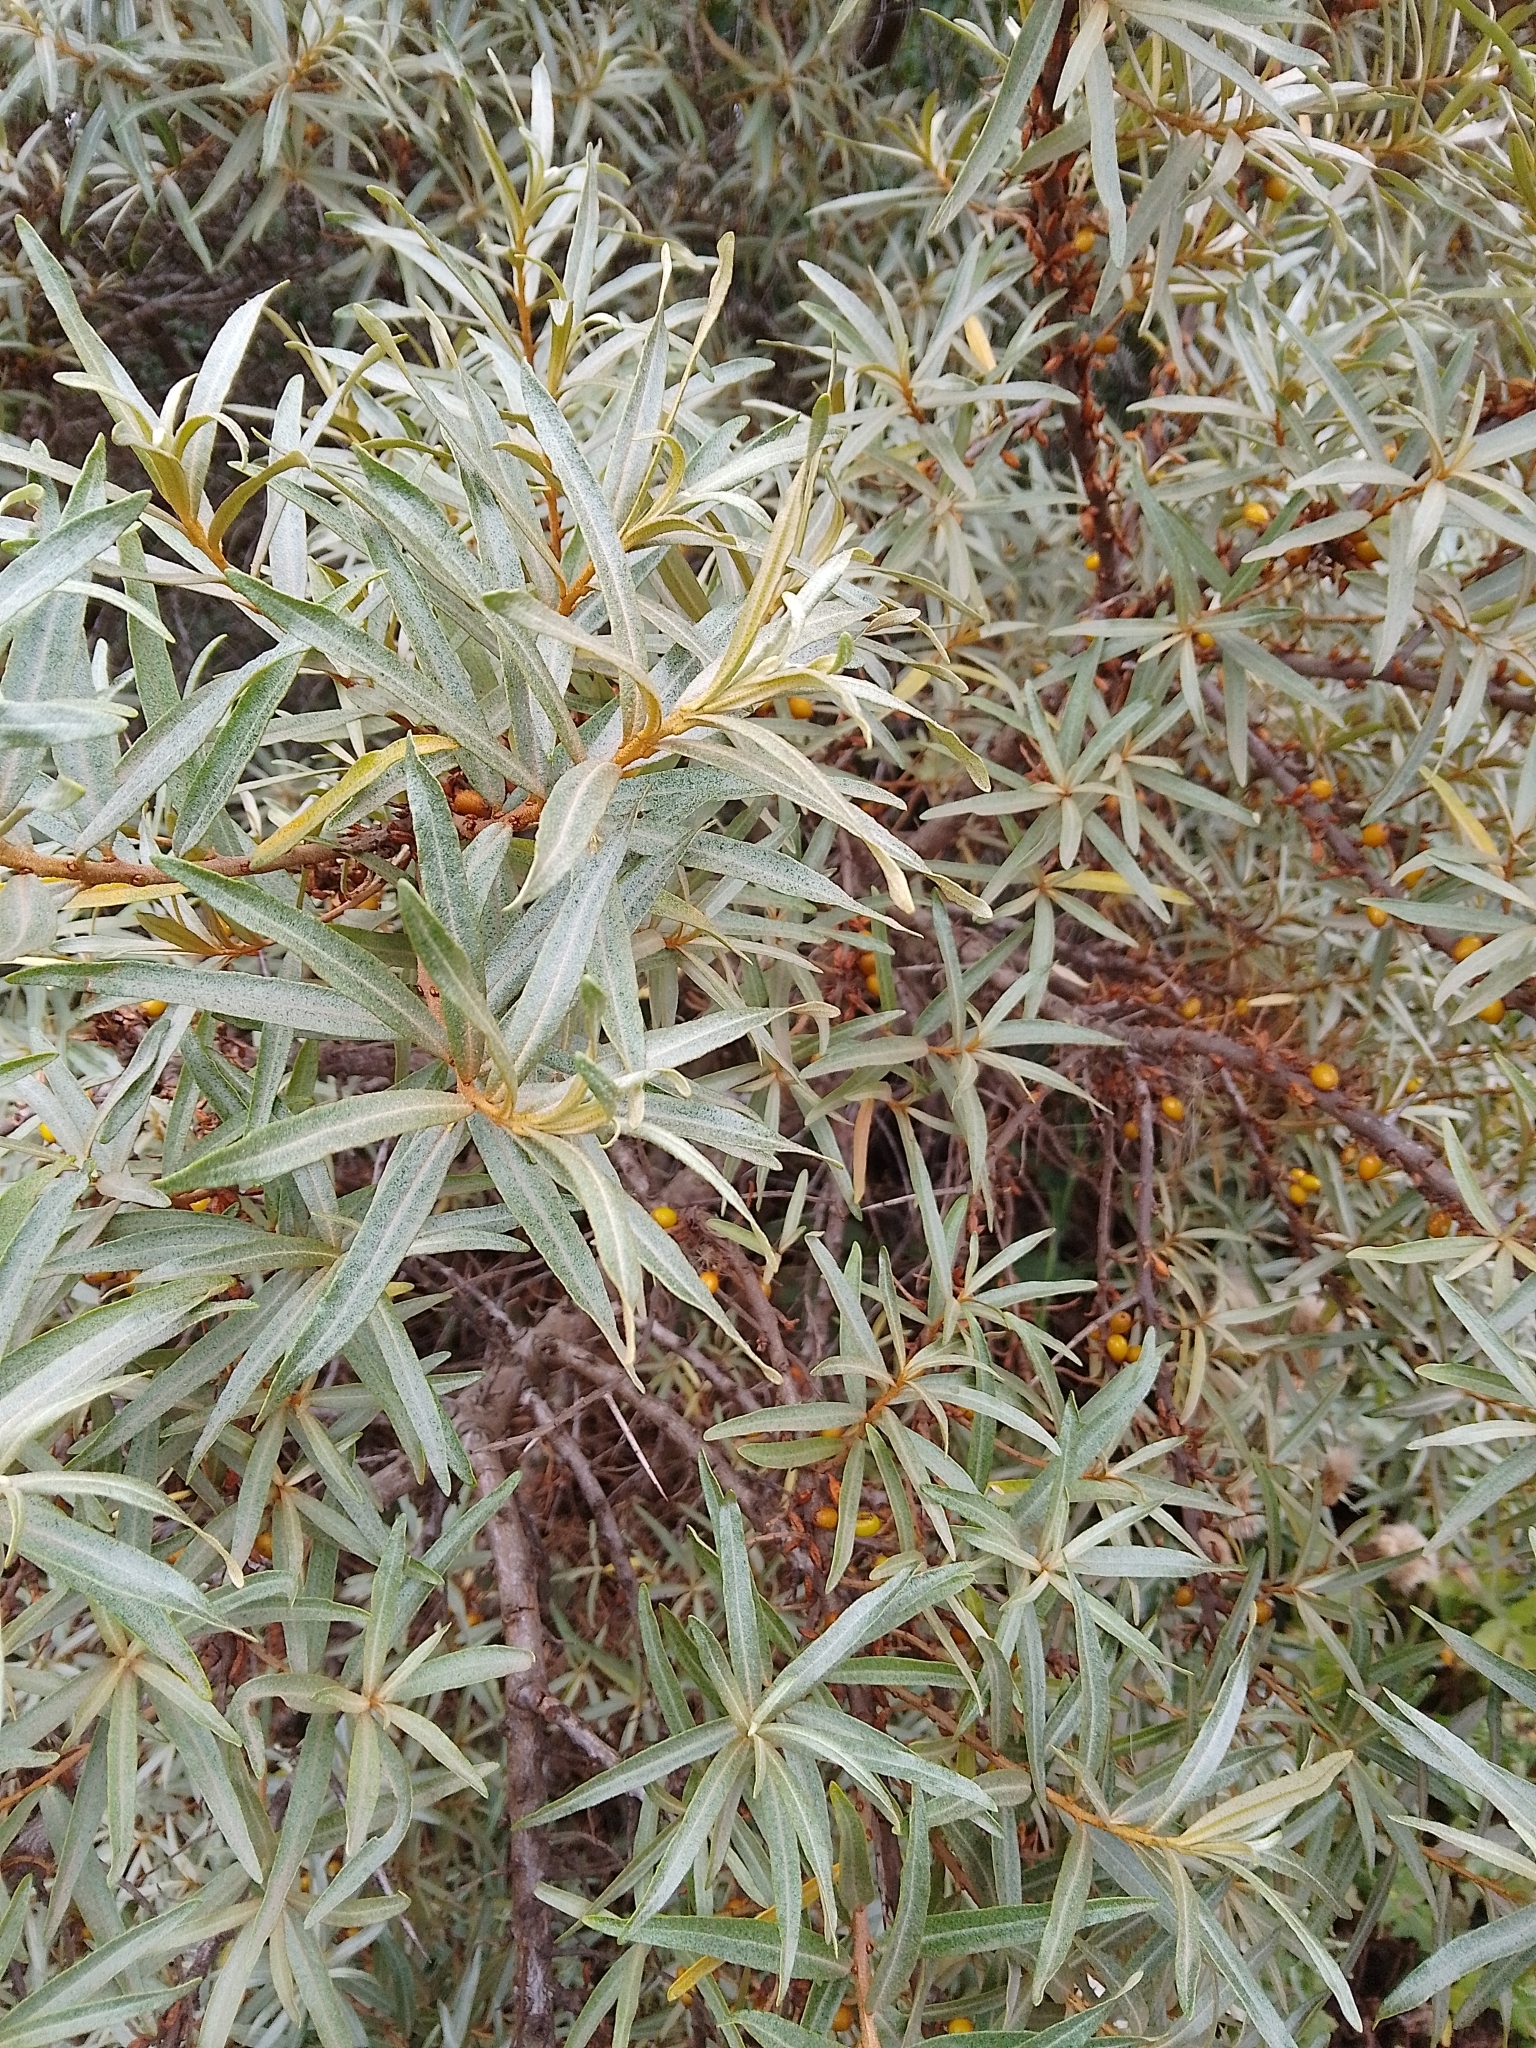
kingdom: Plantae
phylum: Tracheophyta
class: Magnoliopsida
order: Rosales
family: Elaeagnaceae
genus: Hippophae
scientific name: Hippophae rhamnoides
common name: Sea-buckthorn
